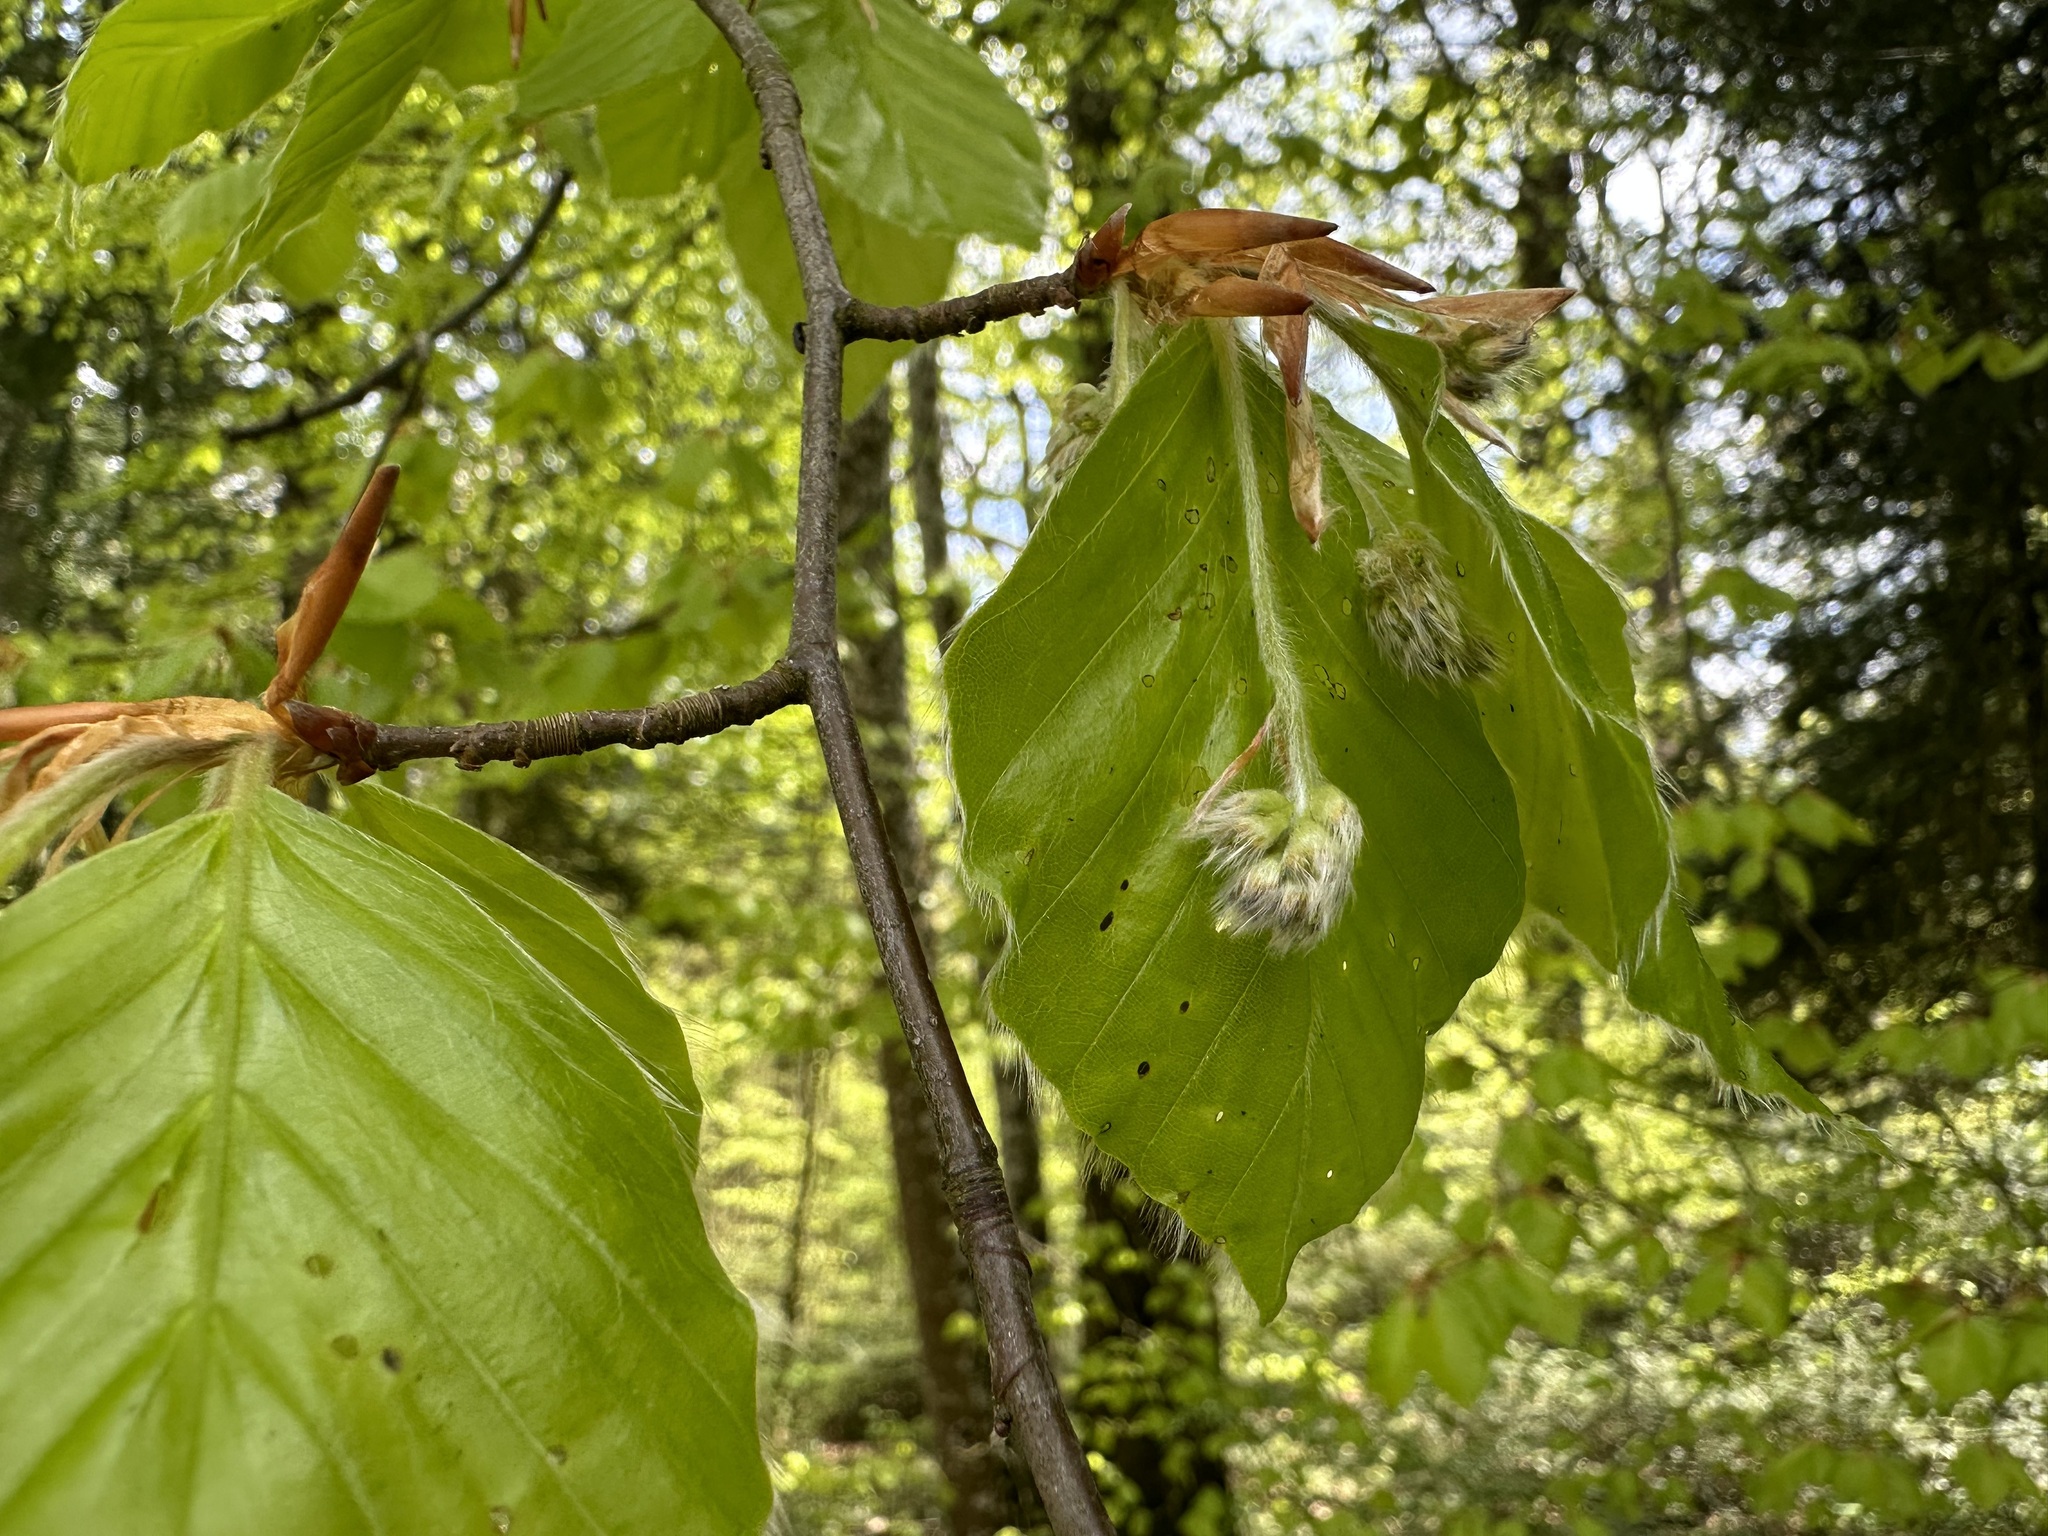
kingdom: Plantae
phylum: Tracheophyta
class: Magnoliopsida
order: Fagales
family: Fagaceae
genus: Fagus
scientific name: Fagus sylvatica
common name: Beech
